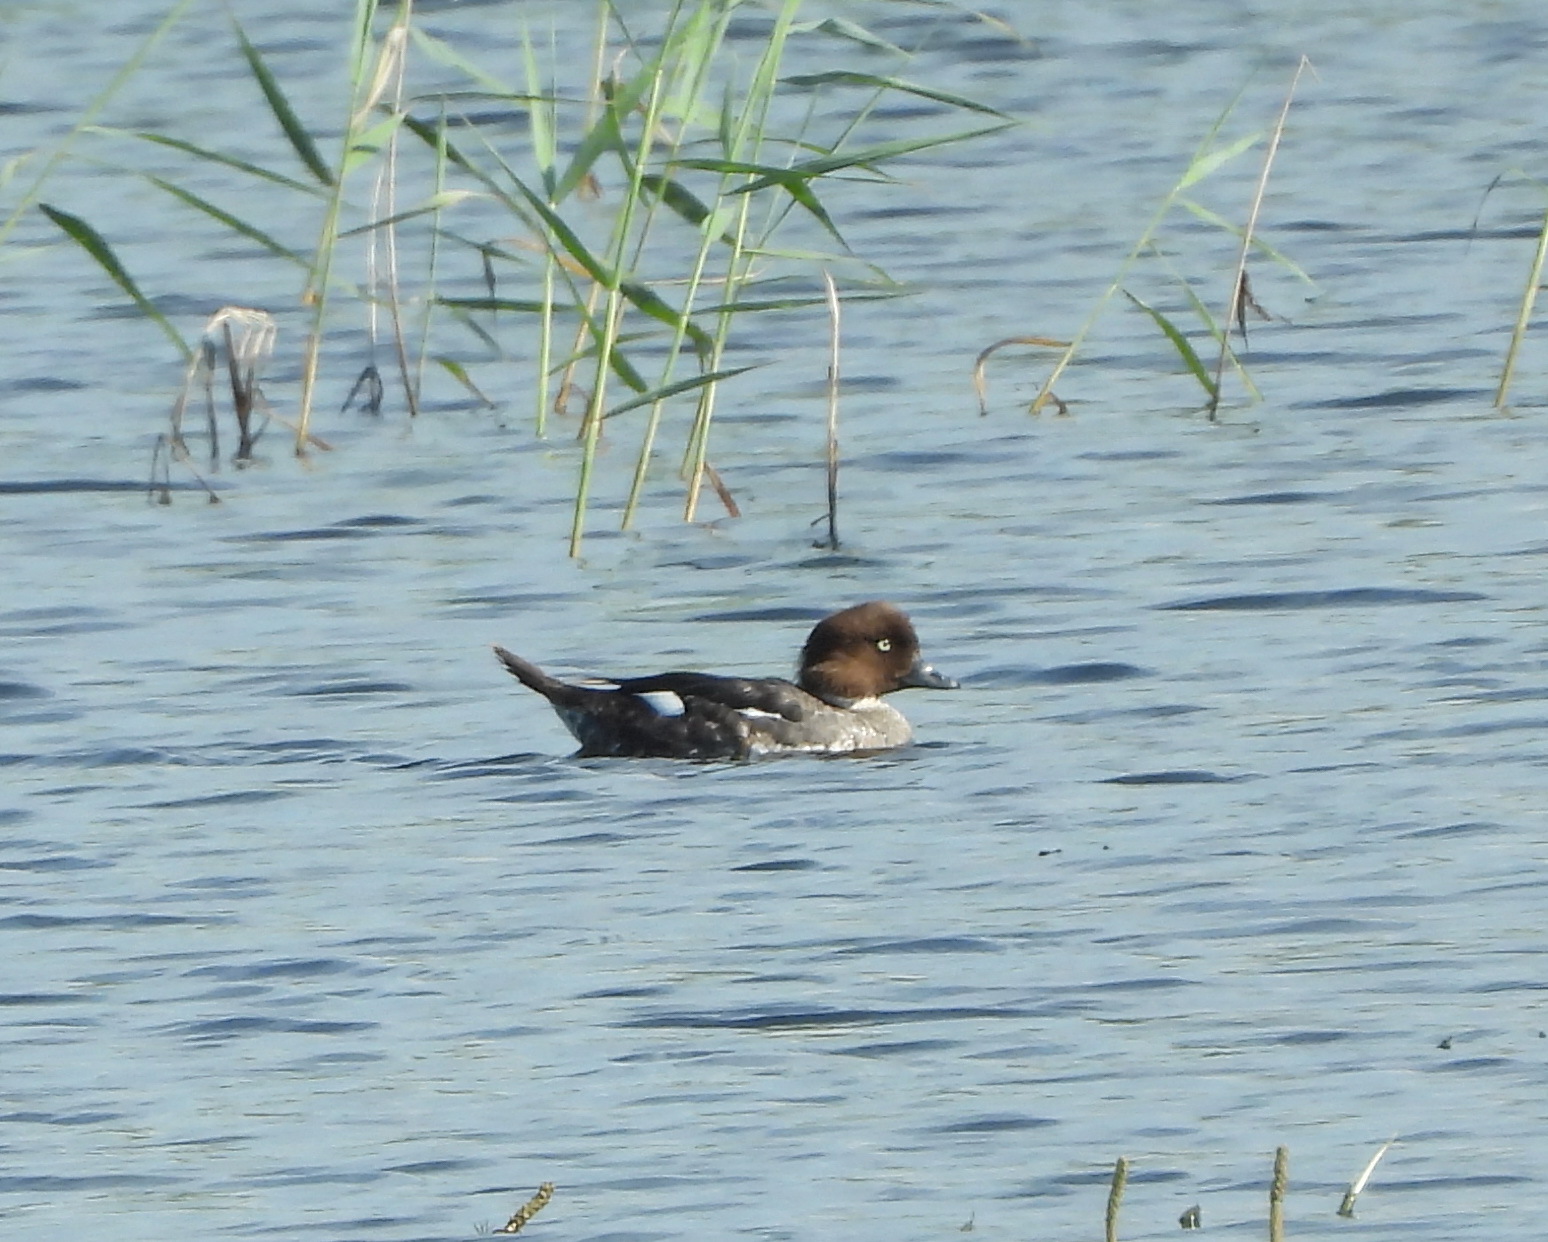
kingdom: Animalia
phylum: Chordata
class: Aves
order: Anseriformes
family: Anatidae
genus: Bucephala
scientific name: Bucephala clangula
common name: Common goldeneye
